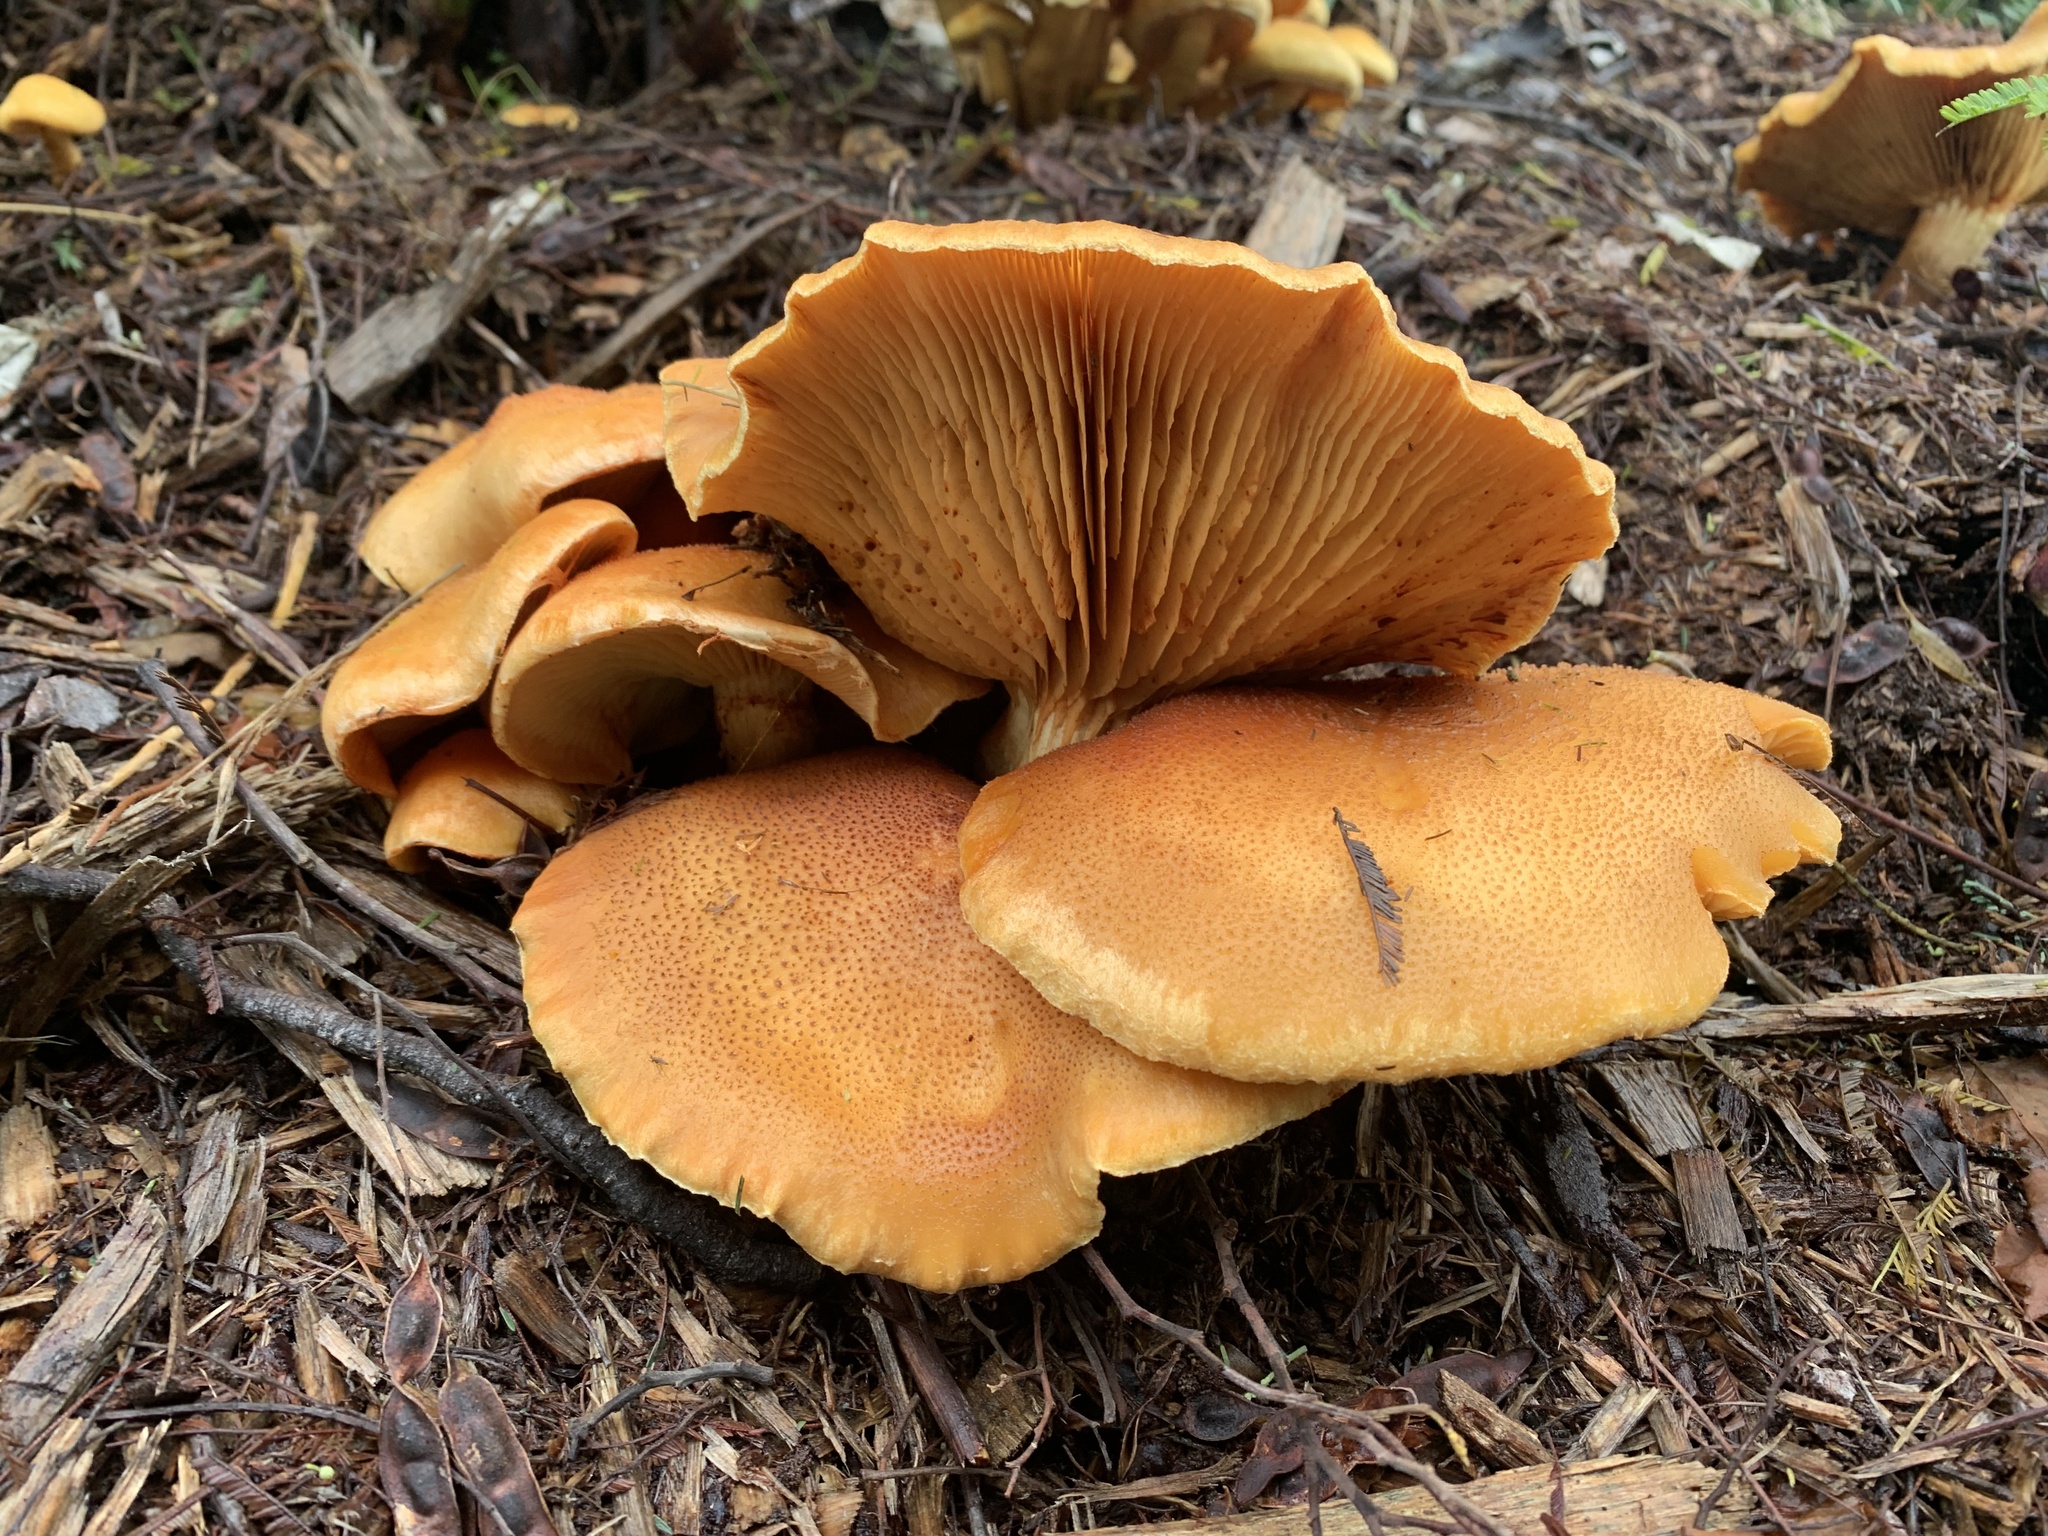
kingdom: Fungi
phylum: Basidiomycota
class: Agaricomycetes
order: Agaricales
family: Hymenogastraceae
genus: Gymnopilus
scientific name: Gymnopilus junonius
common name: Spectacular rustgill
